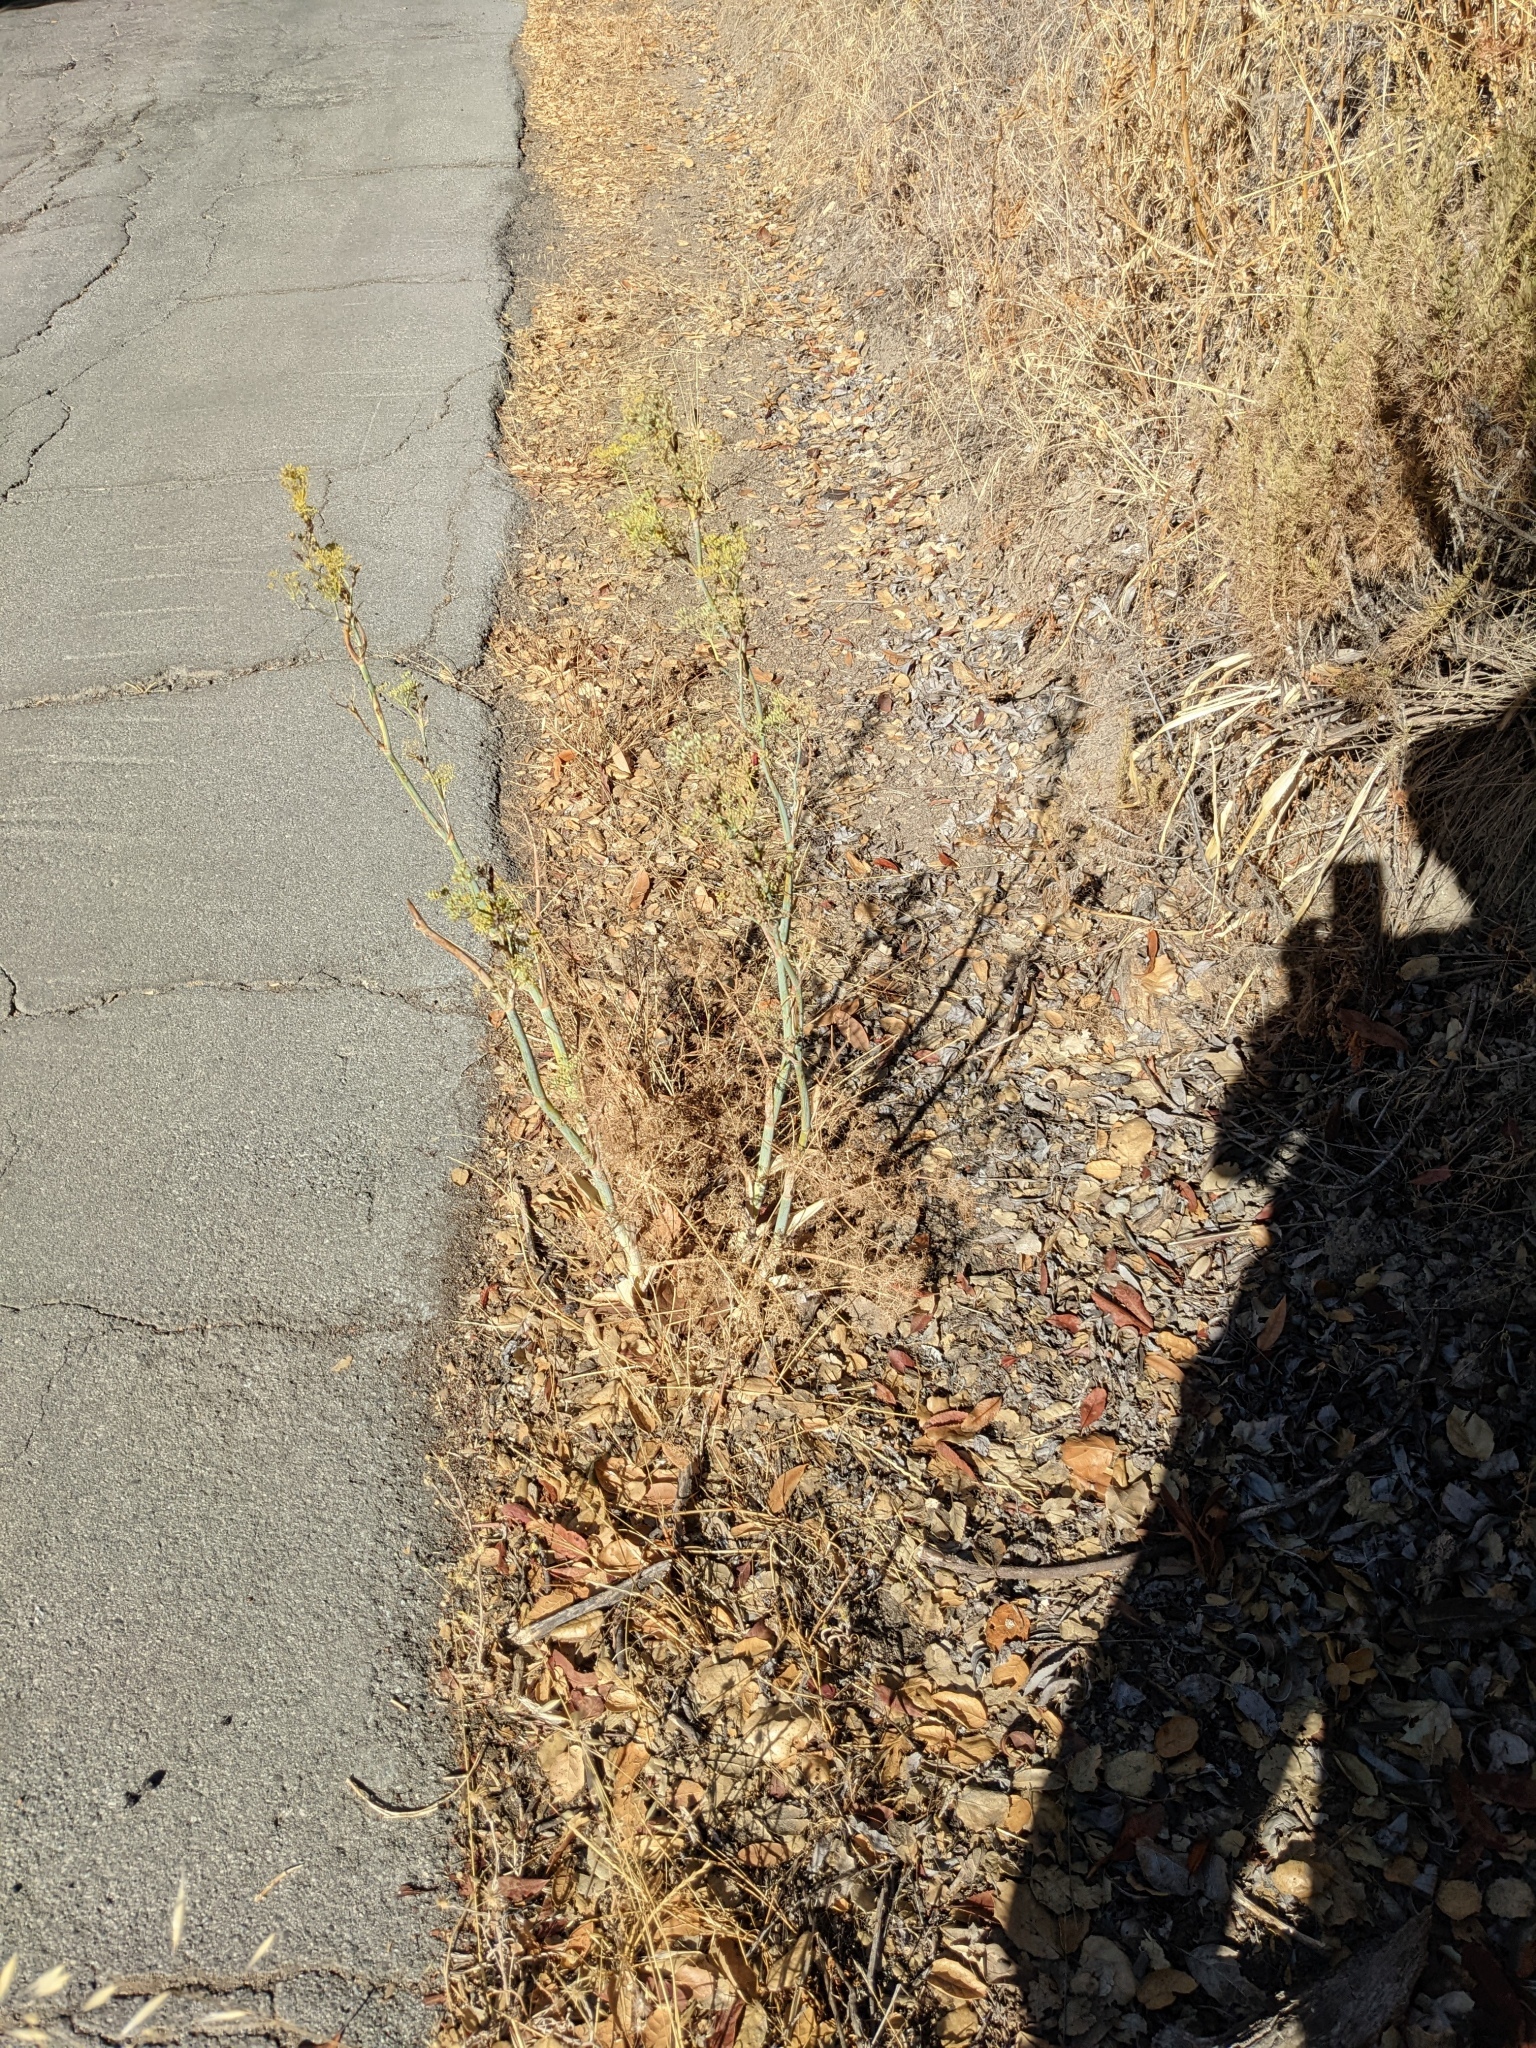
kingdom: Plantae
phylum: Tracheophyta
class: Magnoliopsida
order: Apiales
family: Apiaceae
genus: Foeniculum
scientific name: Foeniculum vulgare
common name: Fennel
